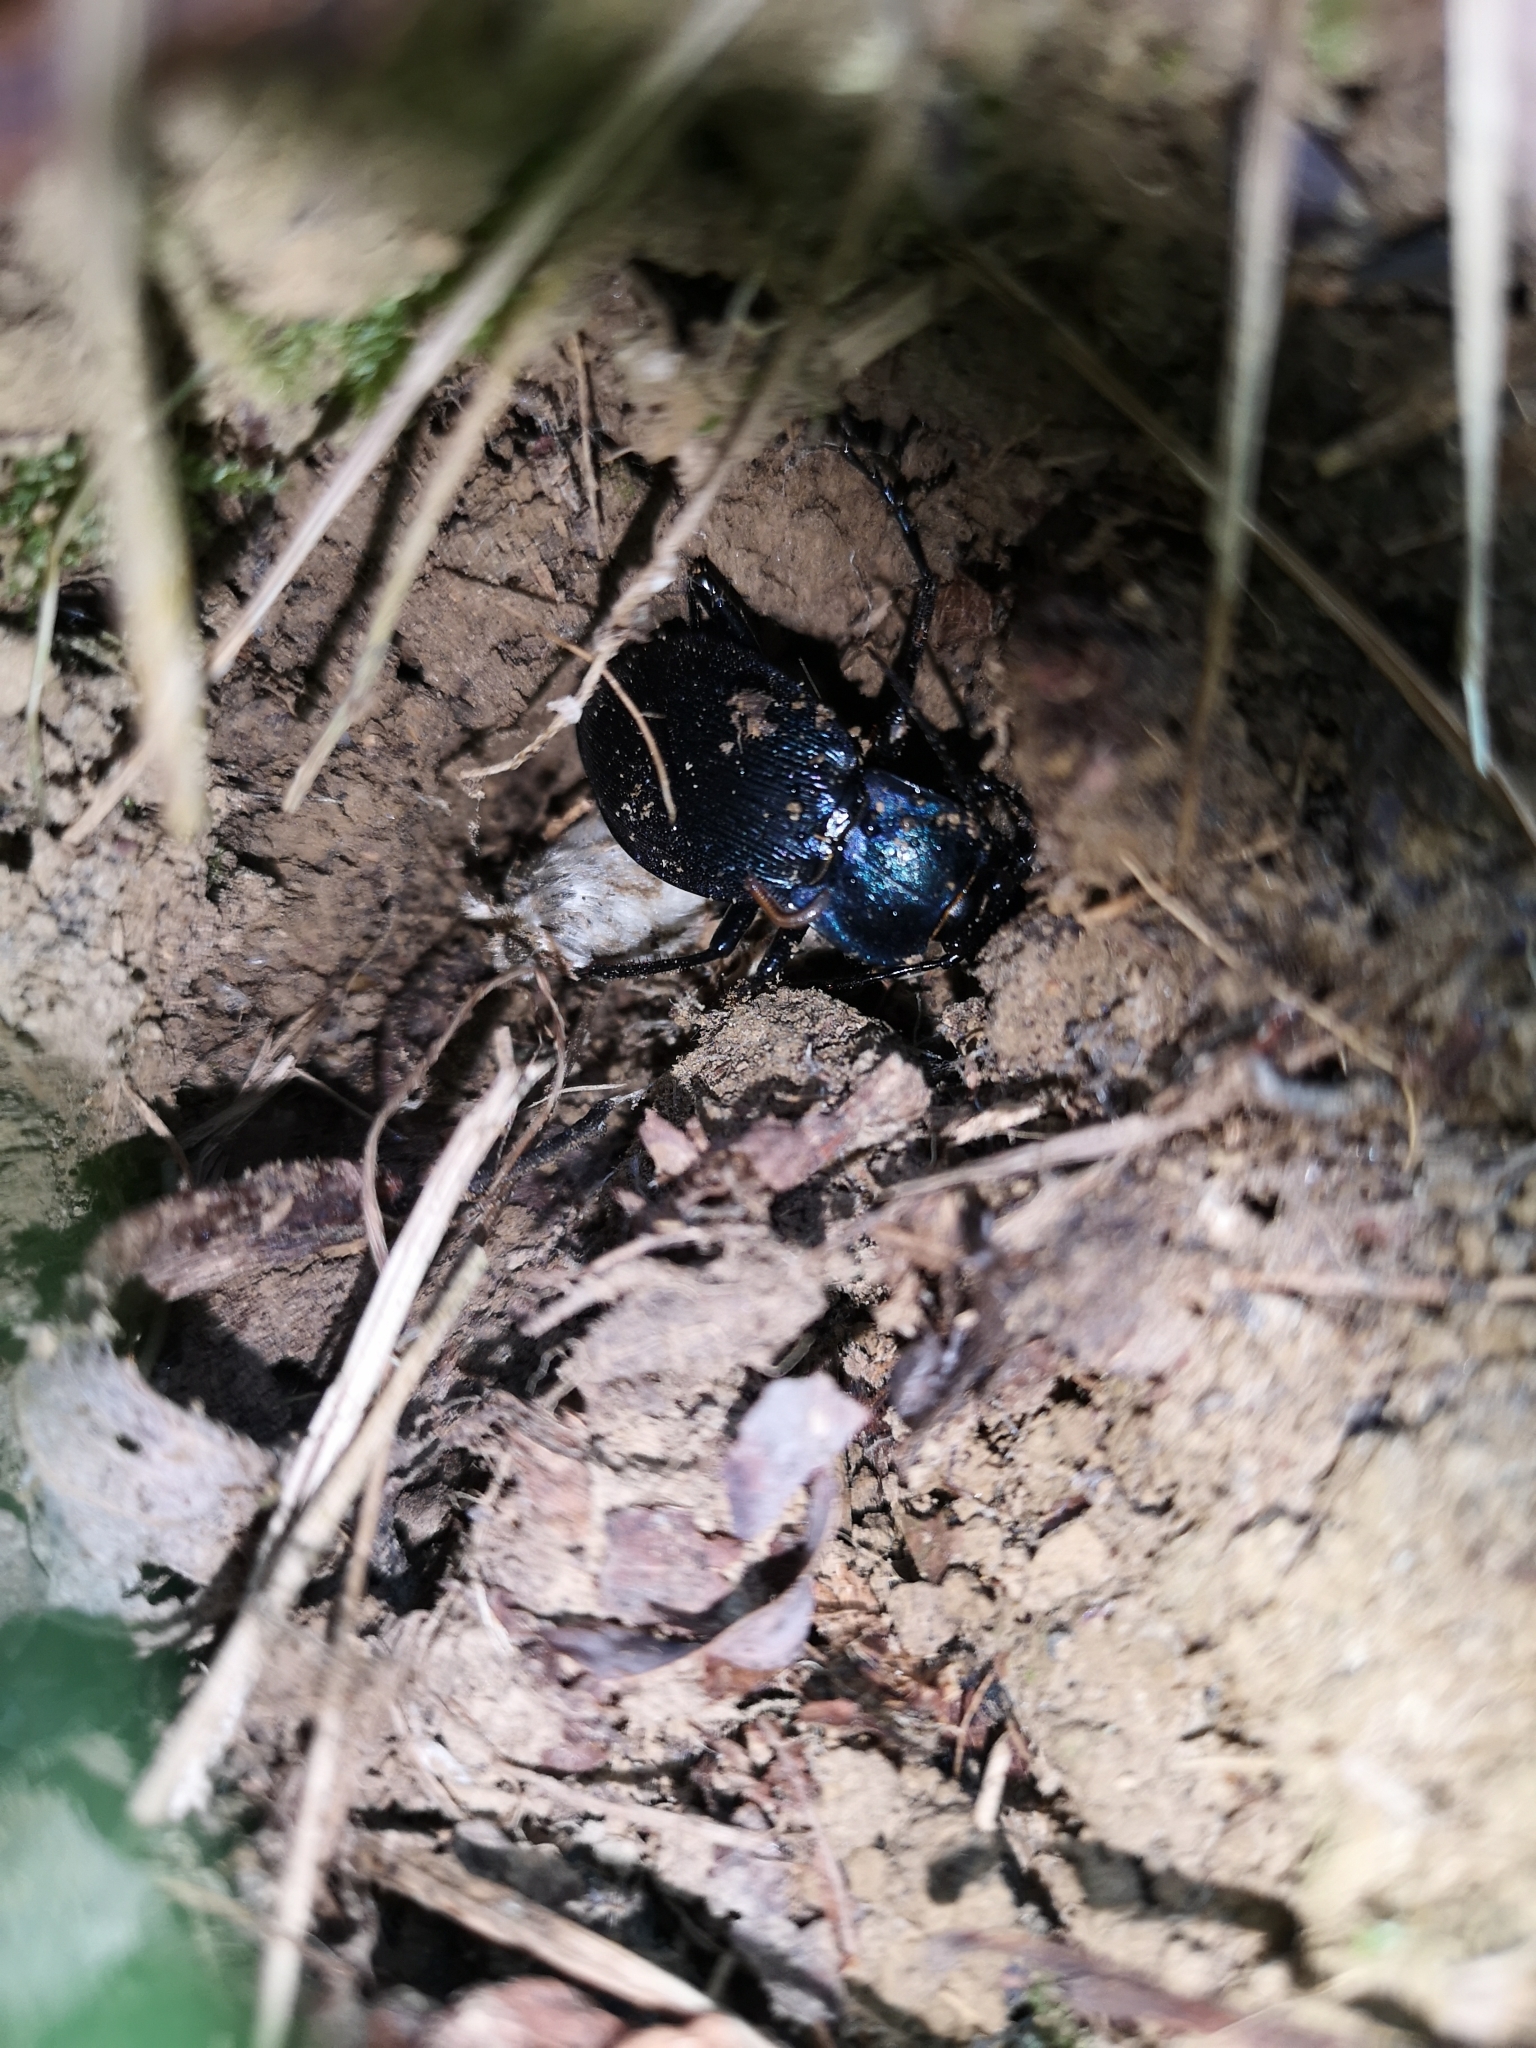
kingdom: Animalia
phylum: Arthropoda
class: Insecta
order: Coleoptera
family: Carabidae
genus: Carabus
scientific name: Carabus catenulatus
